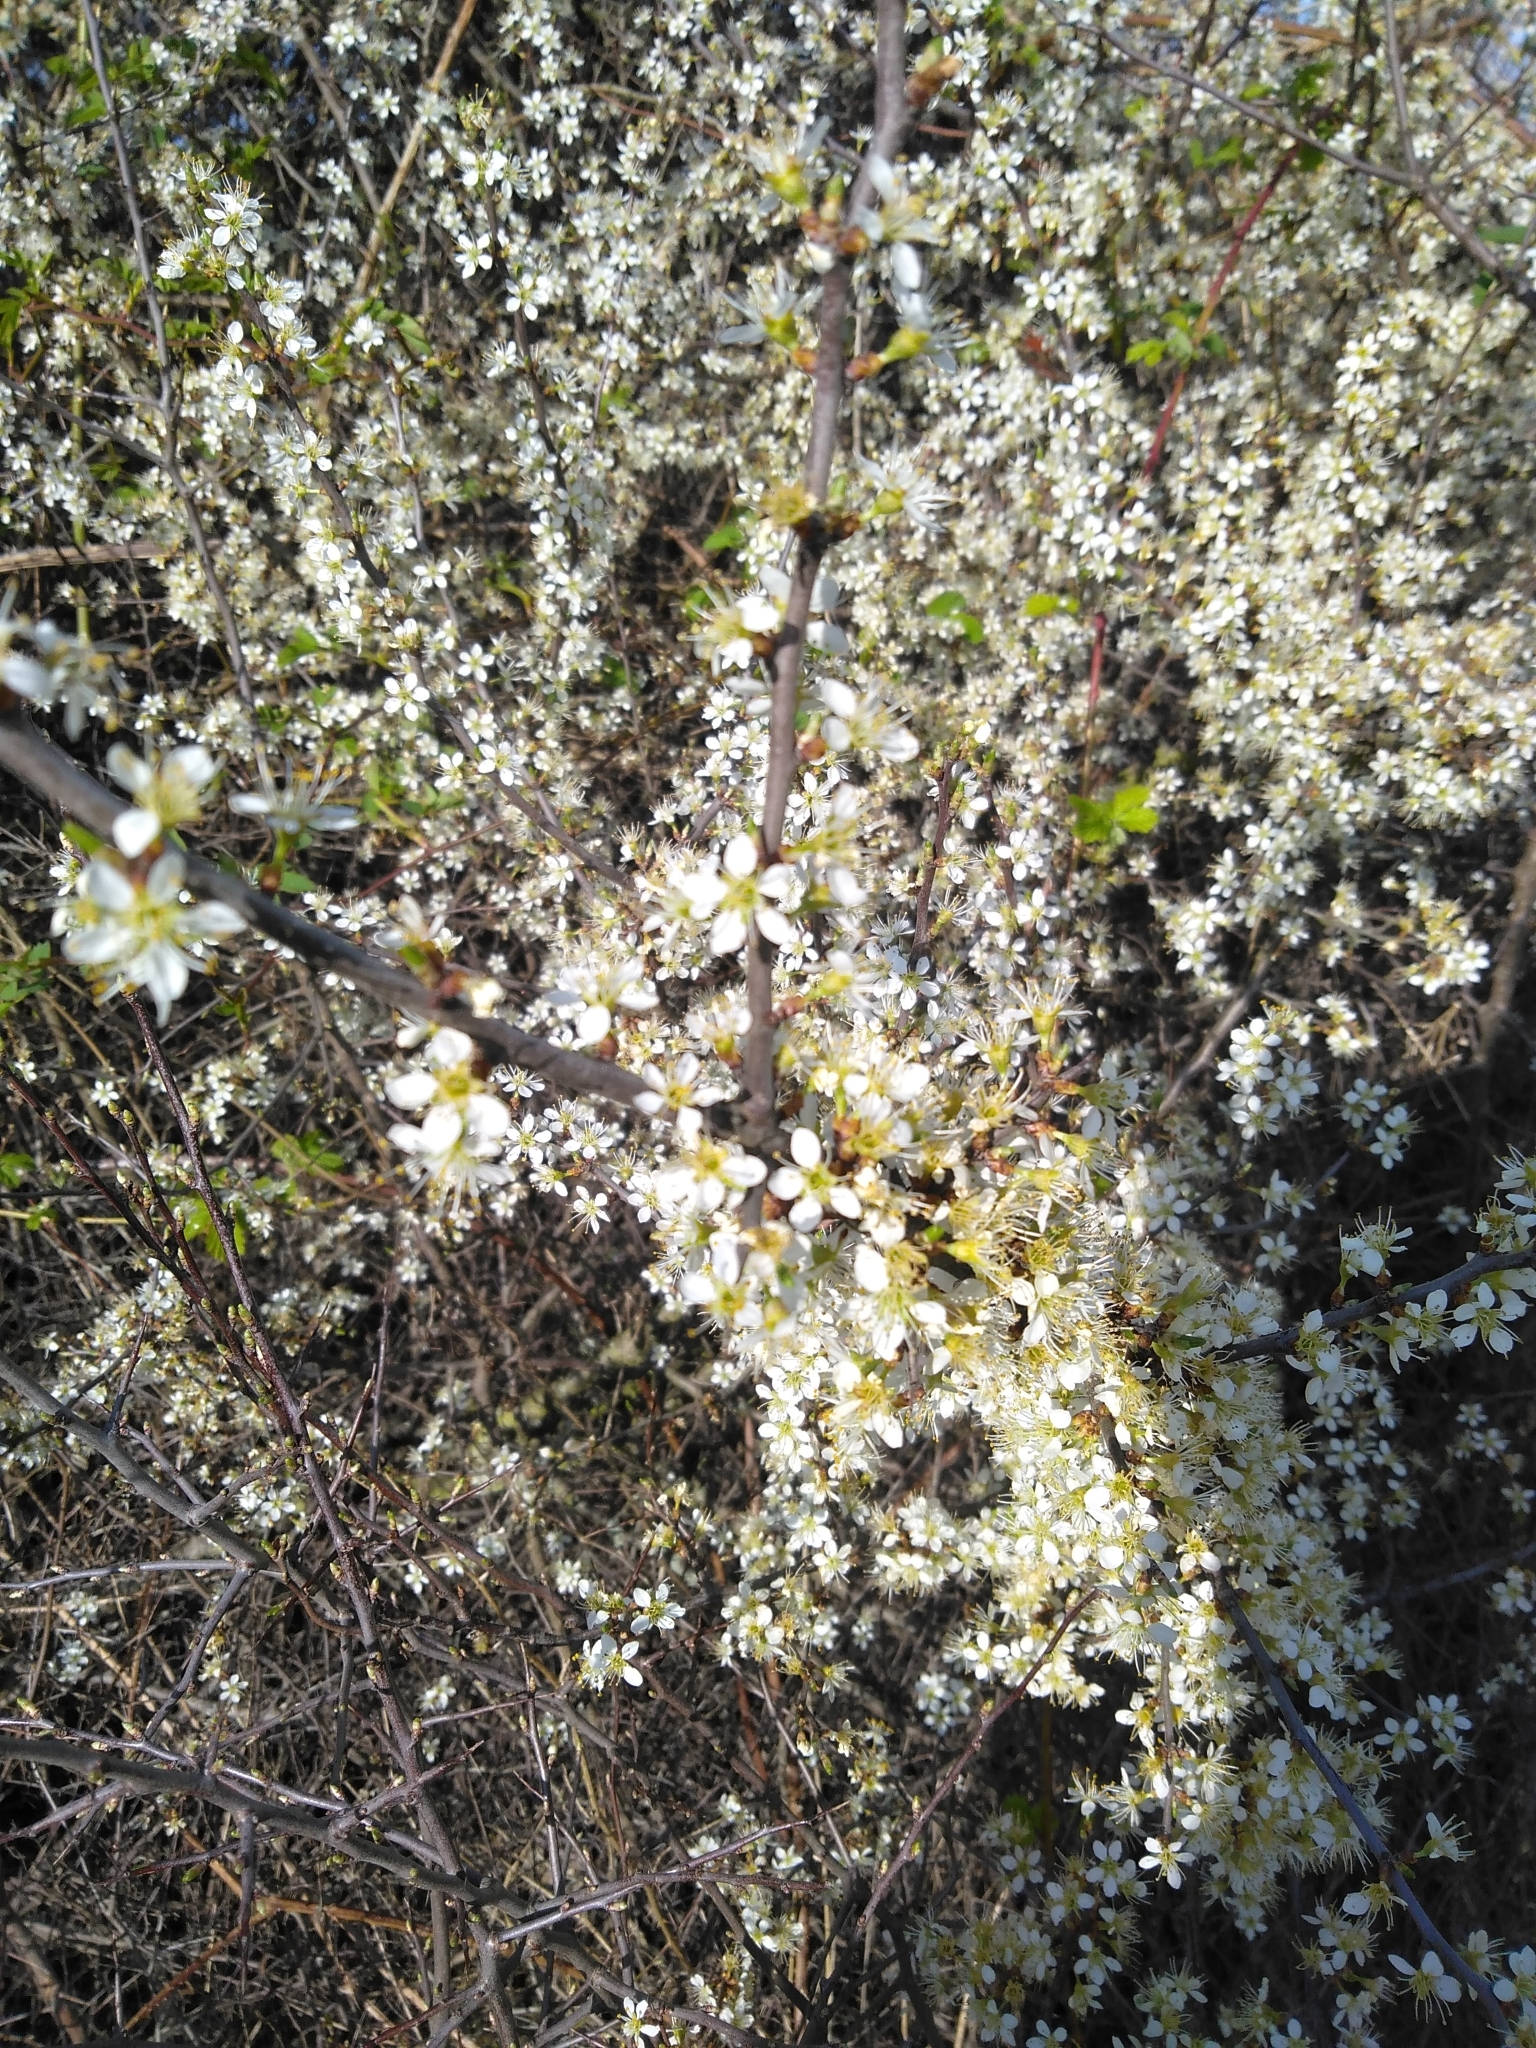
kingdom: Plantae
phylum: Tracheophyta
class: Magnoliopsida
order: Rosales
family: Rosaceae
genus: Prunus
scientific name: Prunus spinosa
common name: Blackthorn
